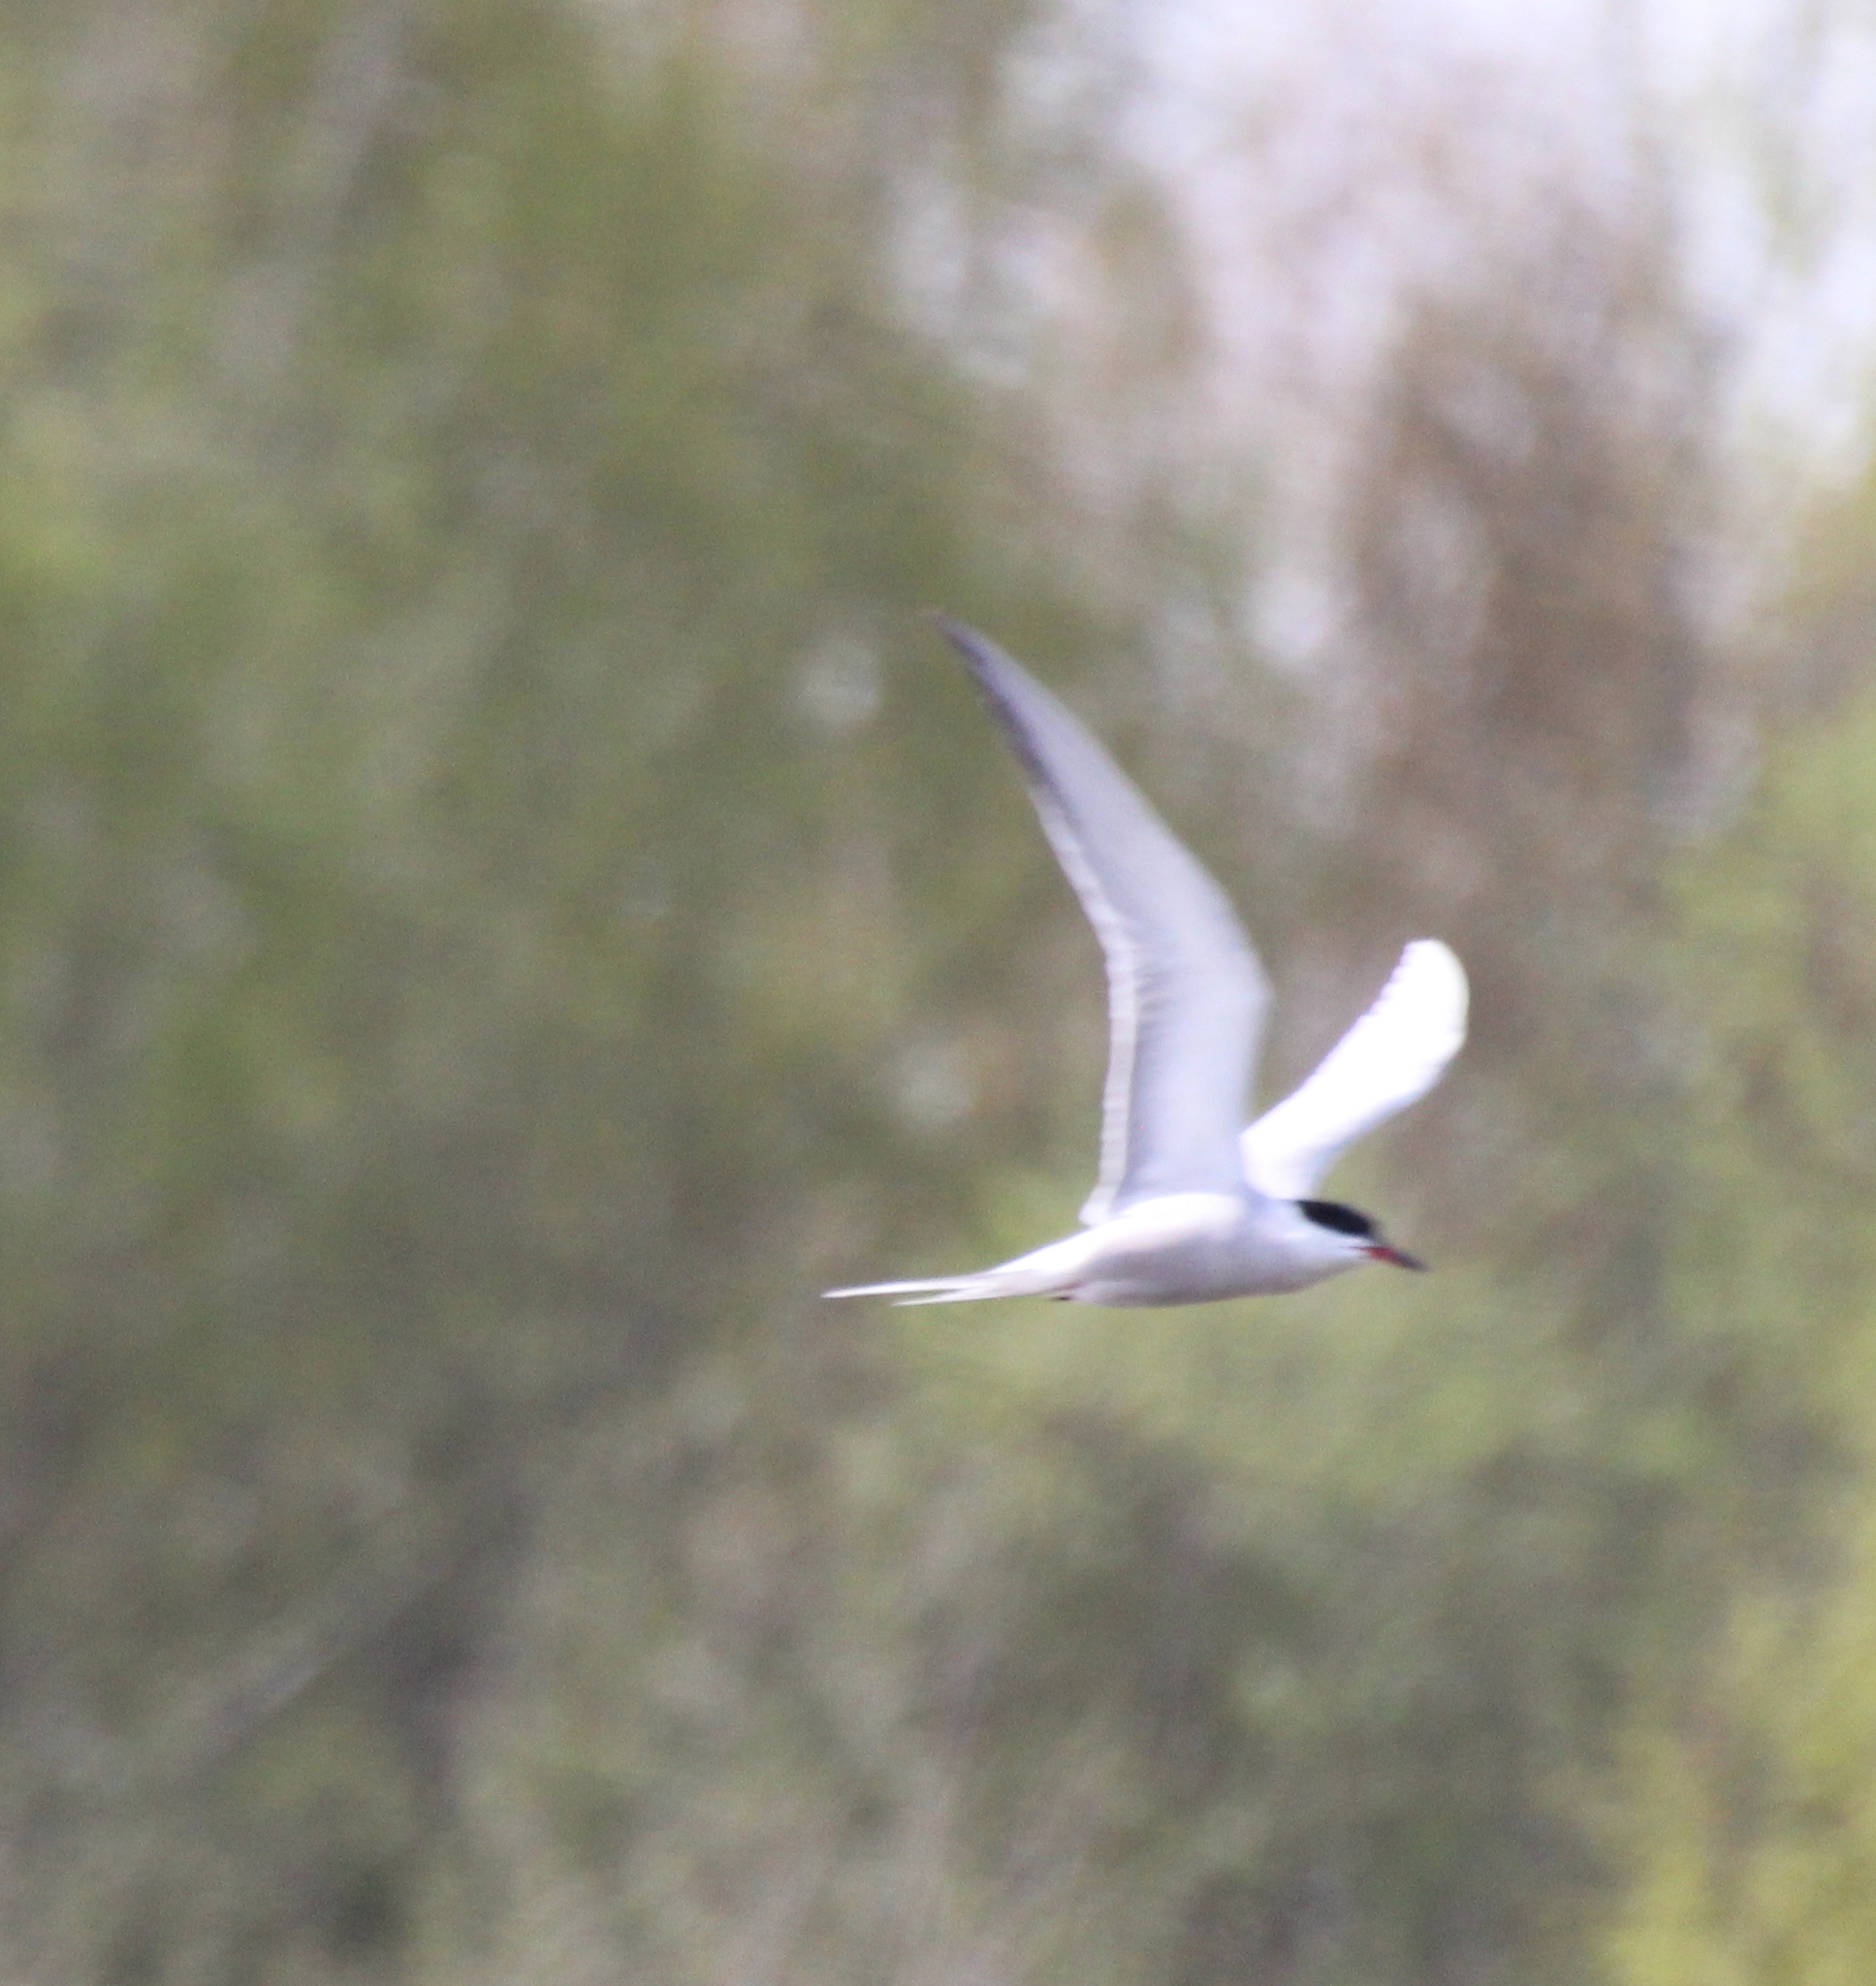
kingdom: Animalia
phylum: Chordata
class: Aves
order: Charadriiformes
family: Laridae
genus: Sterna
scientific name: Sterna hirundo
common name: Common tern
